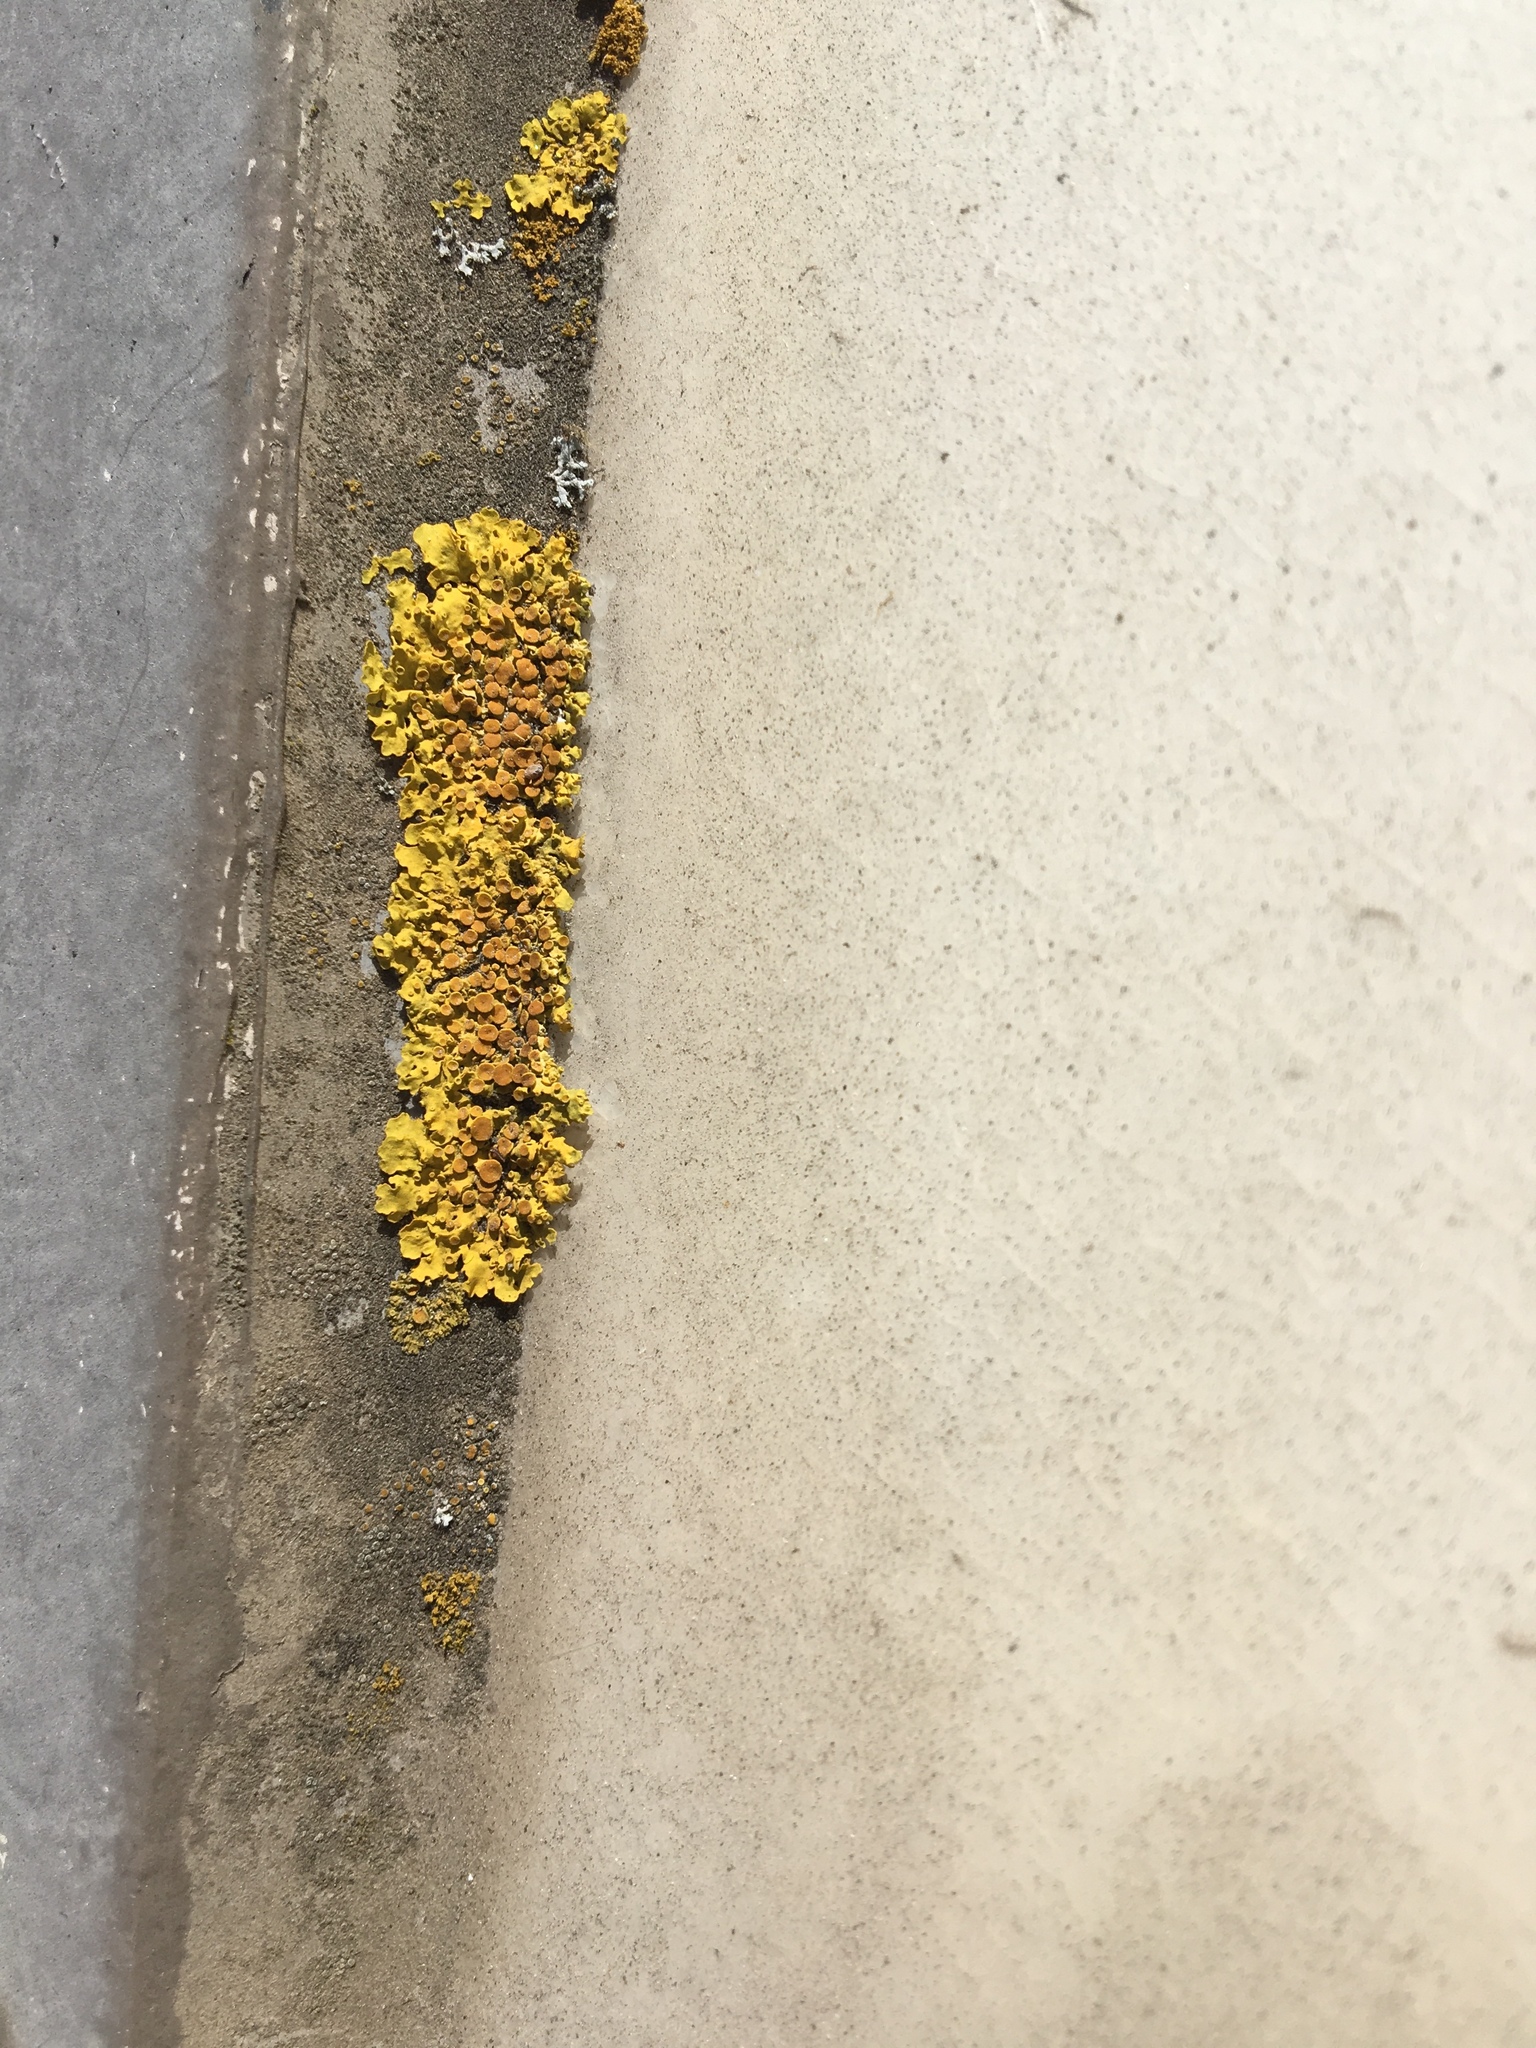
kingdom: Fungi
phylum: Ascomycota
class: Lecanoromycetes
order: Teloschistales
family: Teloschistaceae
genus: Xanthoria
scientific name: Xanthoria parietina
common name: Common orange lichen
